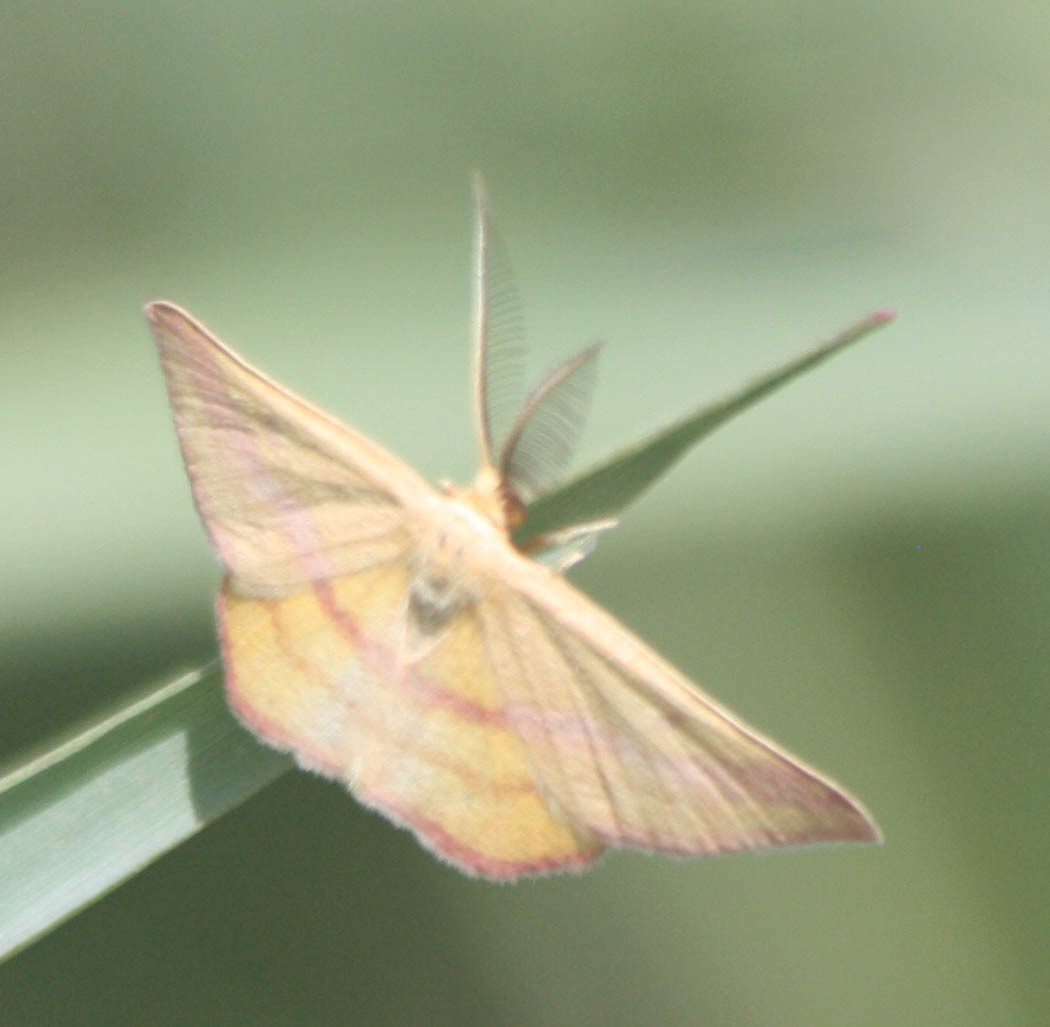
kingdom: Animalia
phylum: Arthropoda
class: Insecta
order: Lepidoptera
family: Geometridae
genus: Haematopis
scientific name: Haematopis grataria
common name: Chickweed geometer
